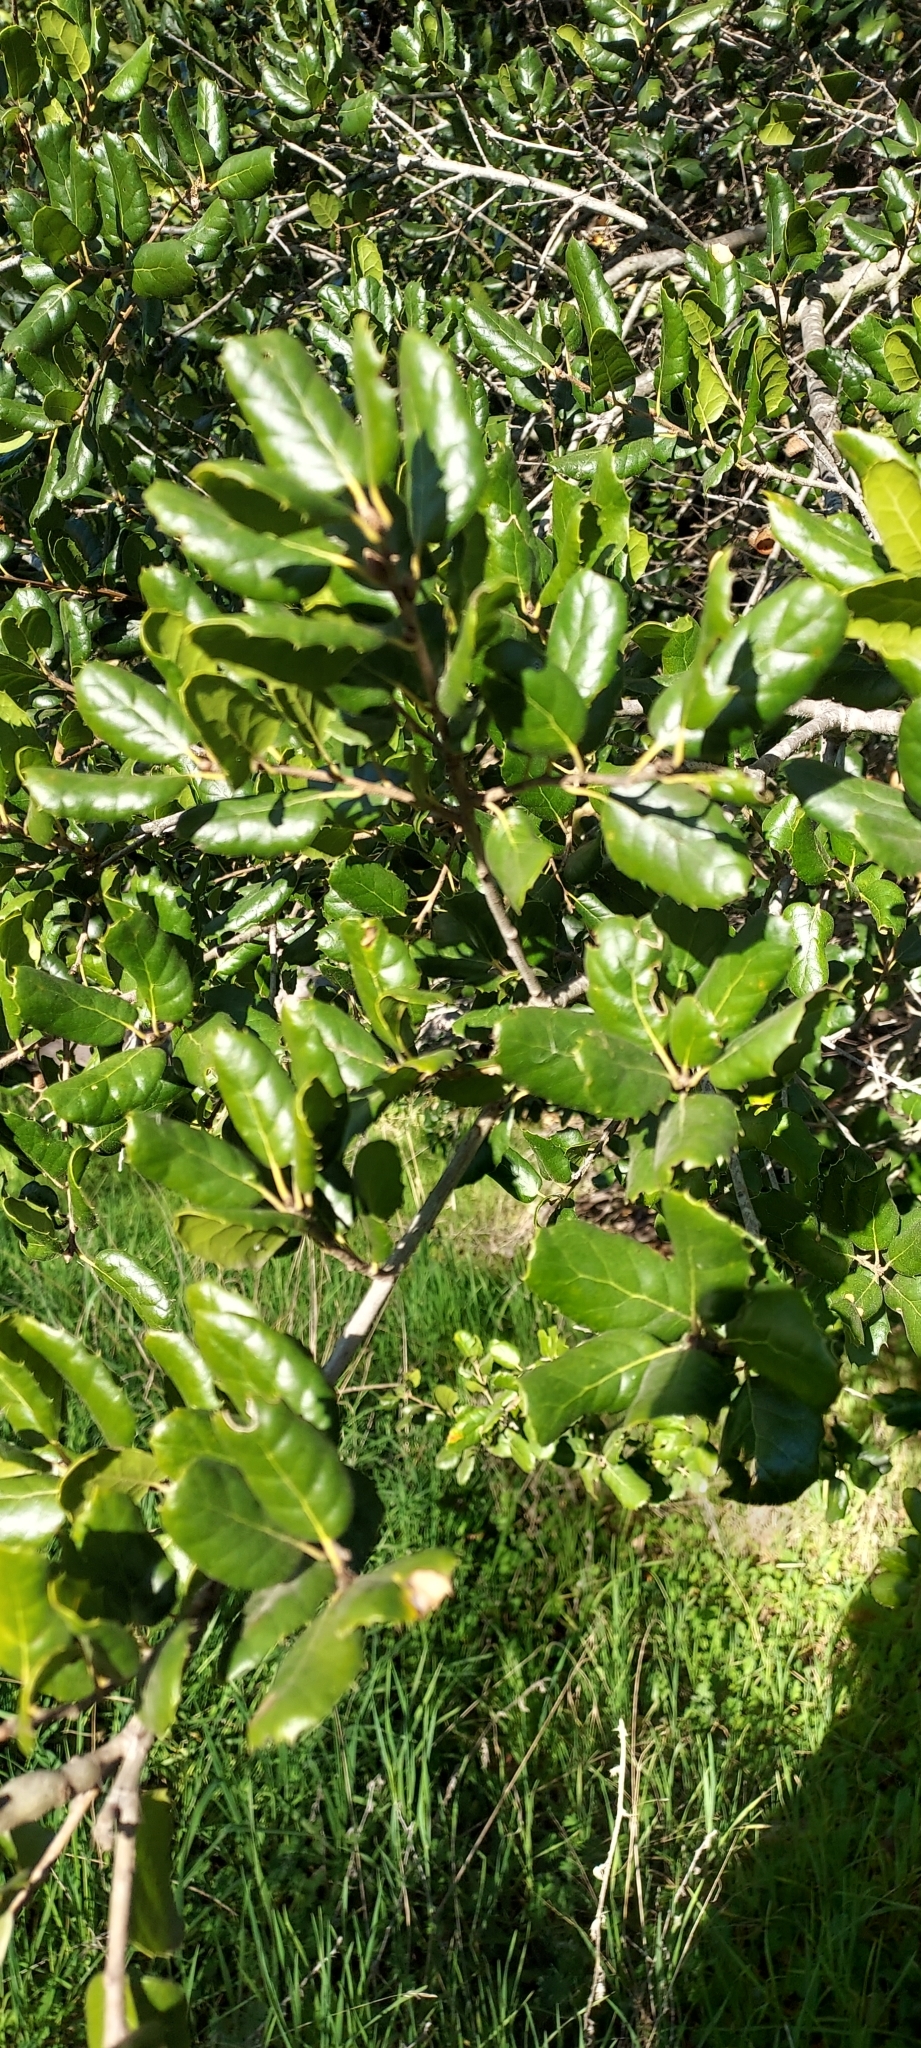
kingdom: Plantae
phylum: Tracheophyta
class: Magnoliopsida
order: Fagales
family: Fagaceae
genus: Quercus
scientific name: Quercus agrifolia
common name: California live oak
